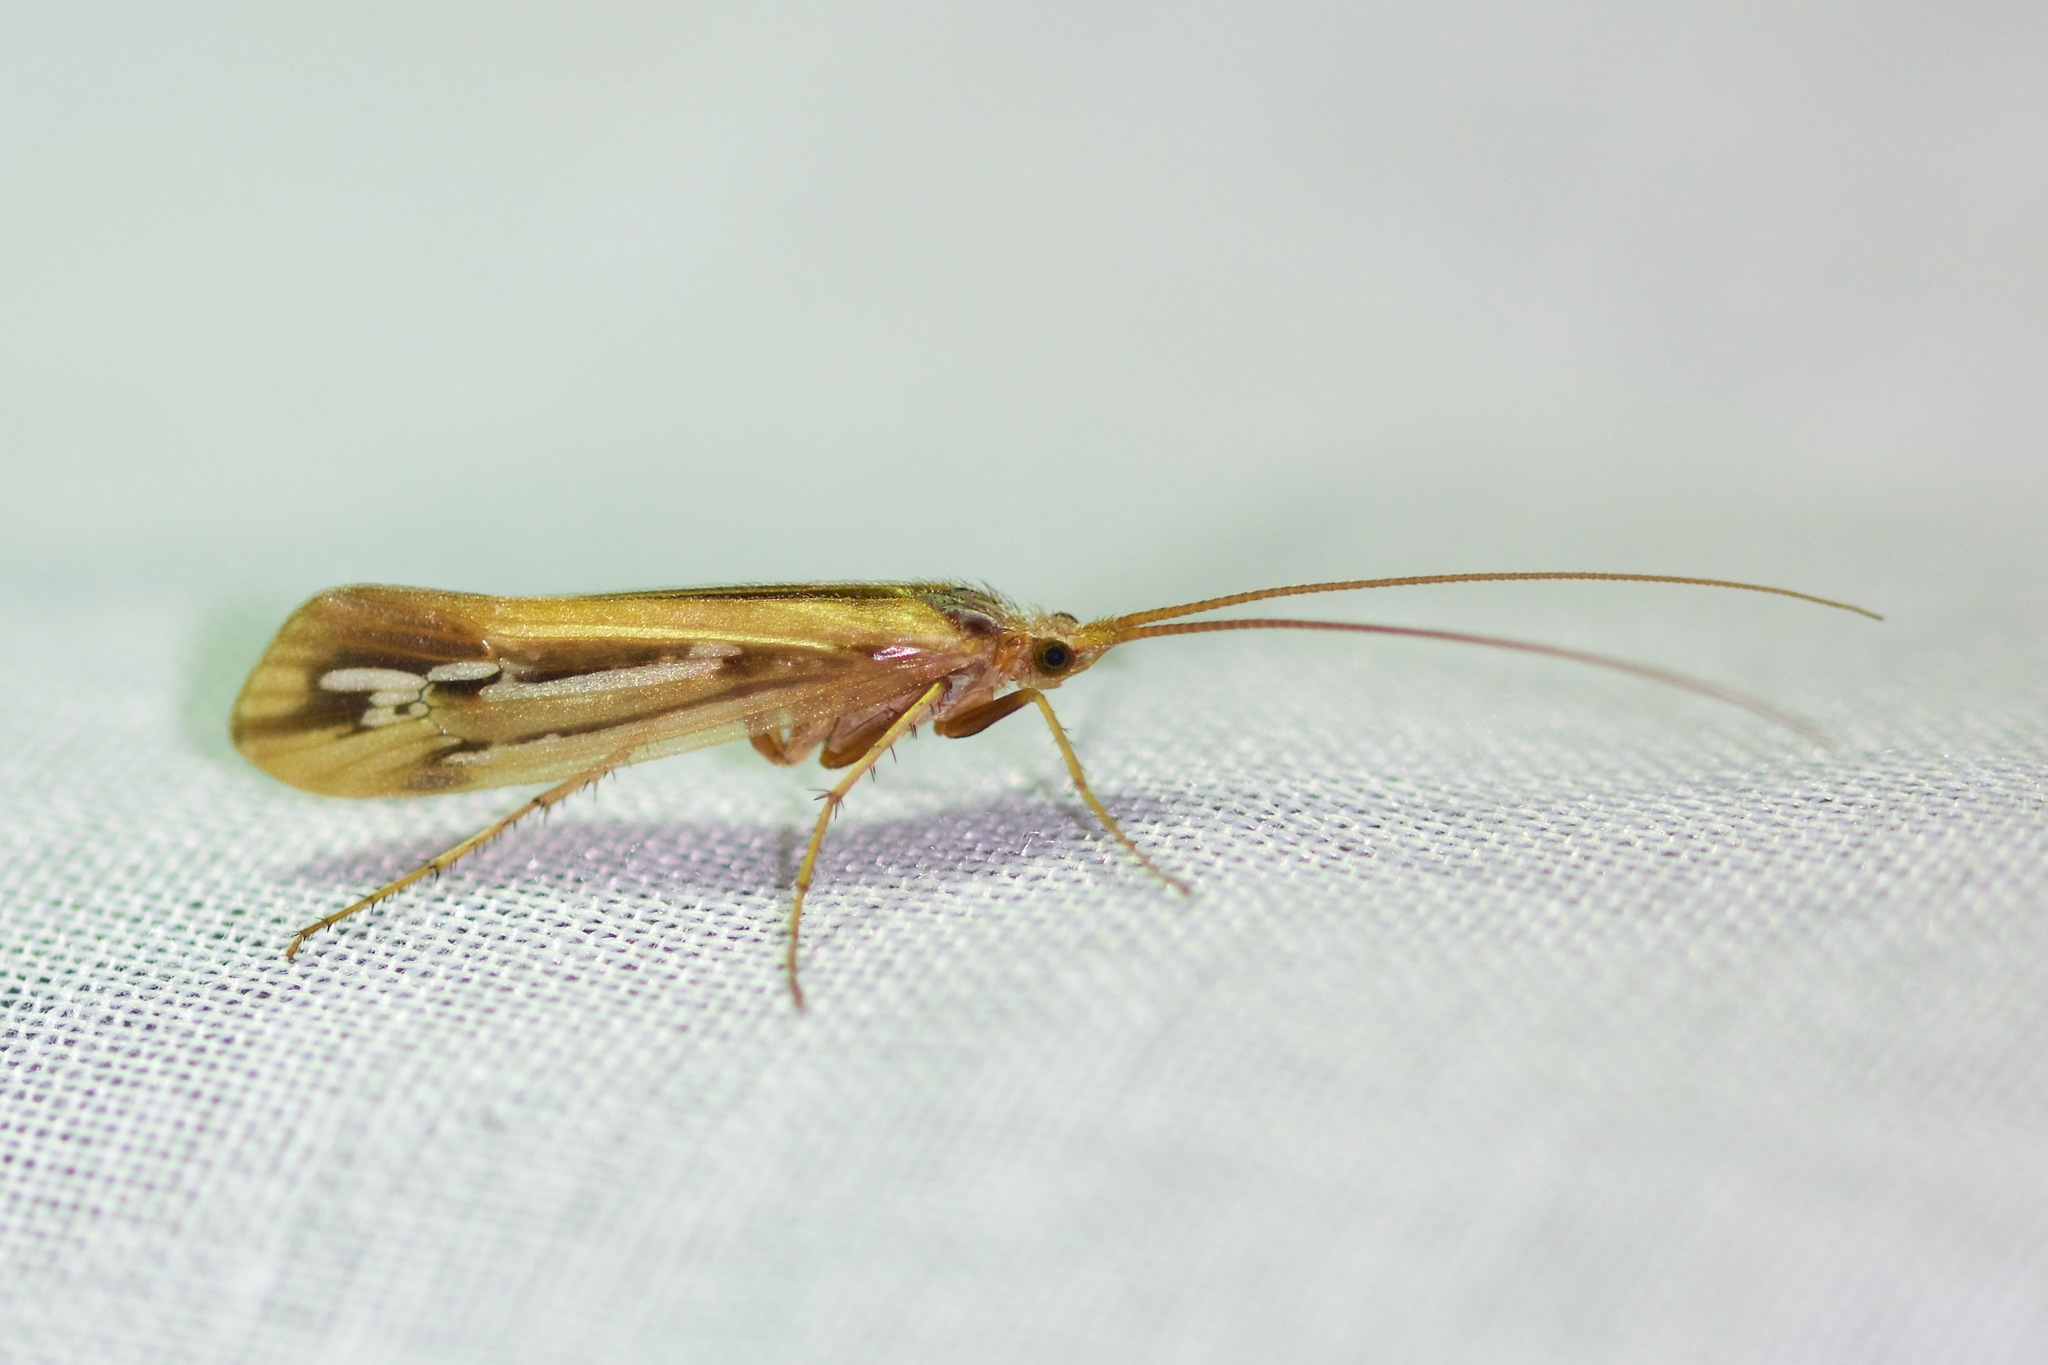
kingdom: Animalia
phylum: Arthropoda
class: Insecta
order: Trichoptera
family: Limnephilidae
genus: Limnephilus
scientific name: Limnephilus ornatus
